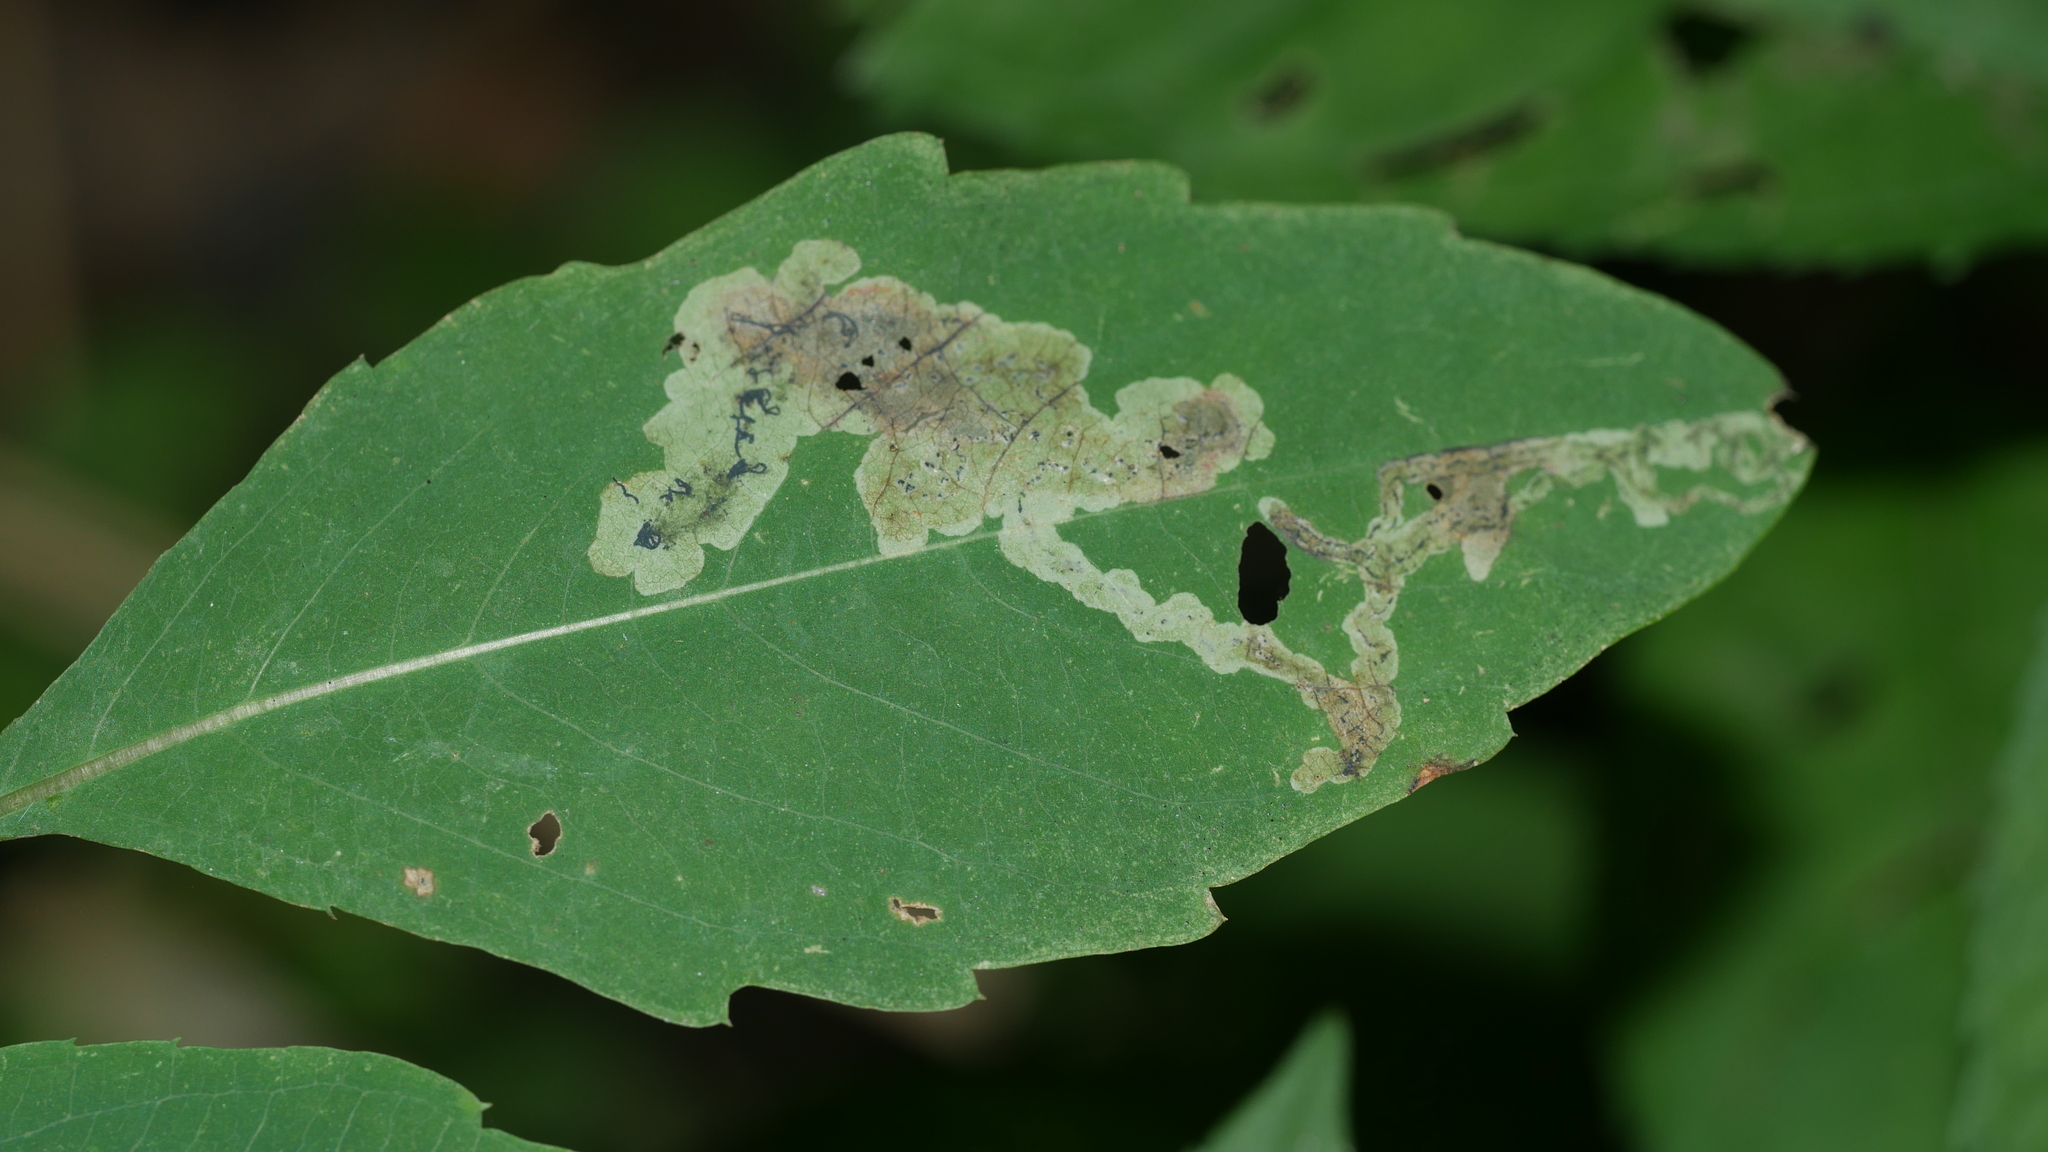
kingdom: Animalia
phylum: Arthropoda
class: Insecta
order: Diptera
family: Agromyzidae
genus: Phytoliriomyza
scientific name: Phytoliriomyza melampyga
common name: Jewelweed leaf-miner fly
